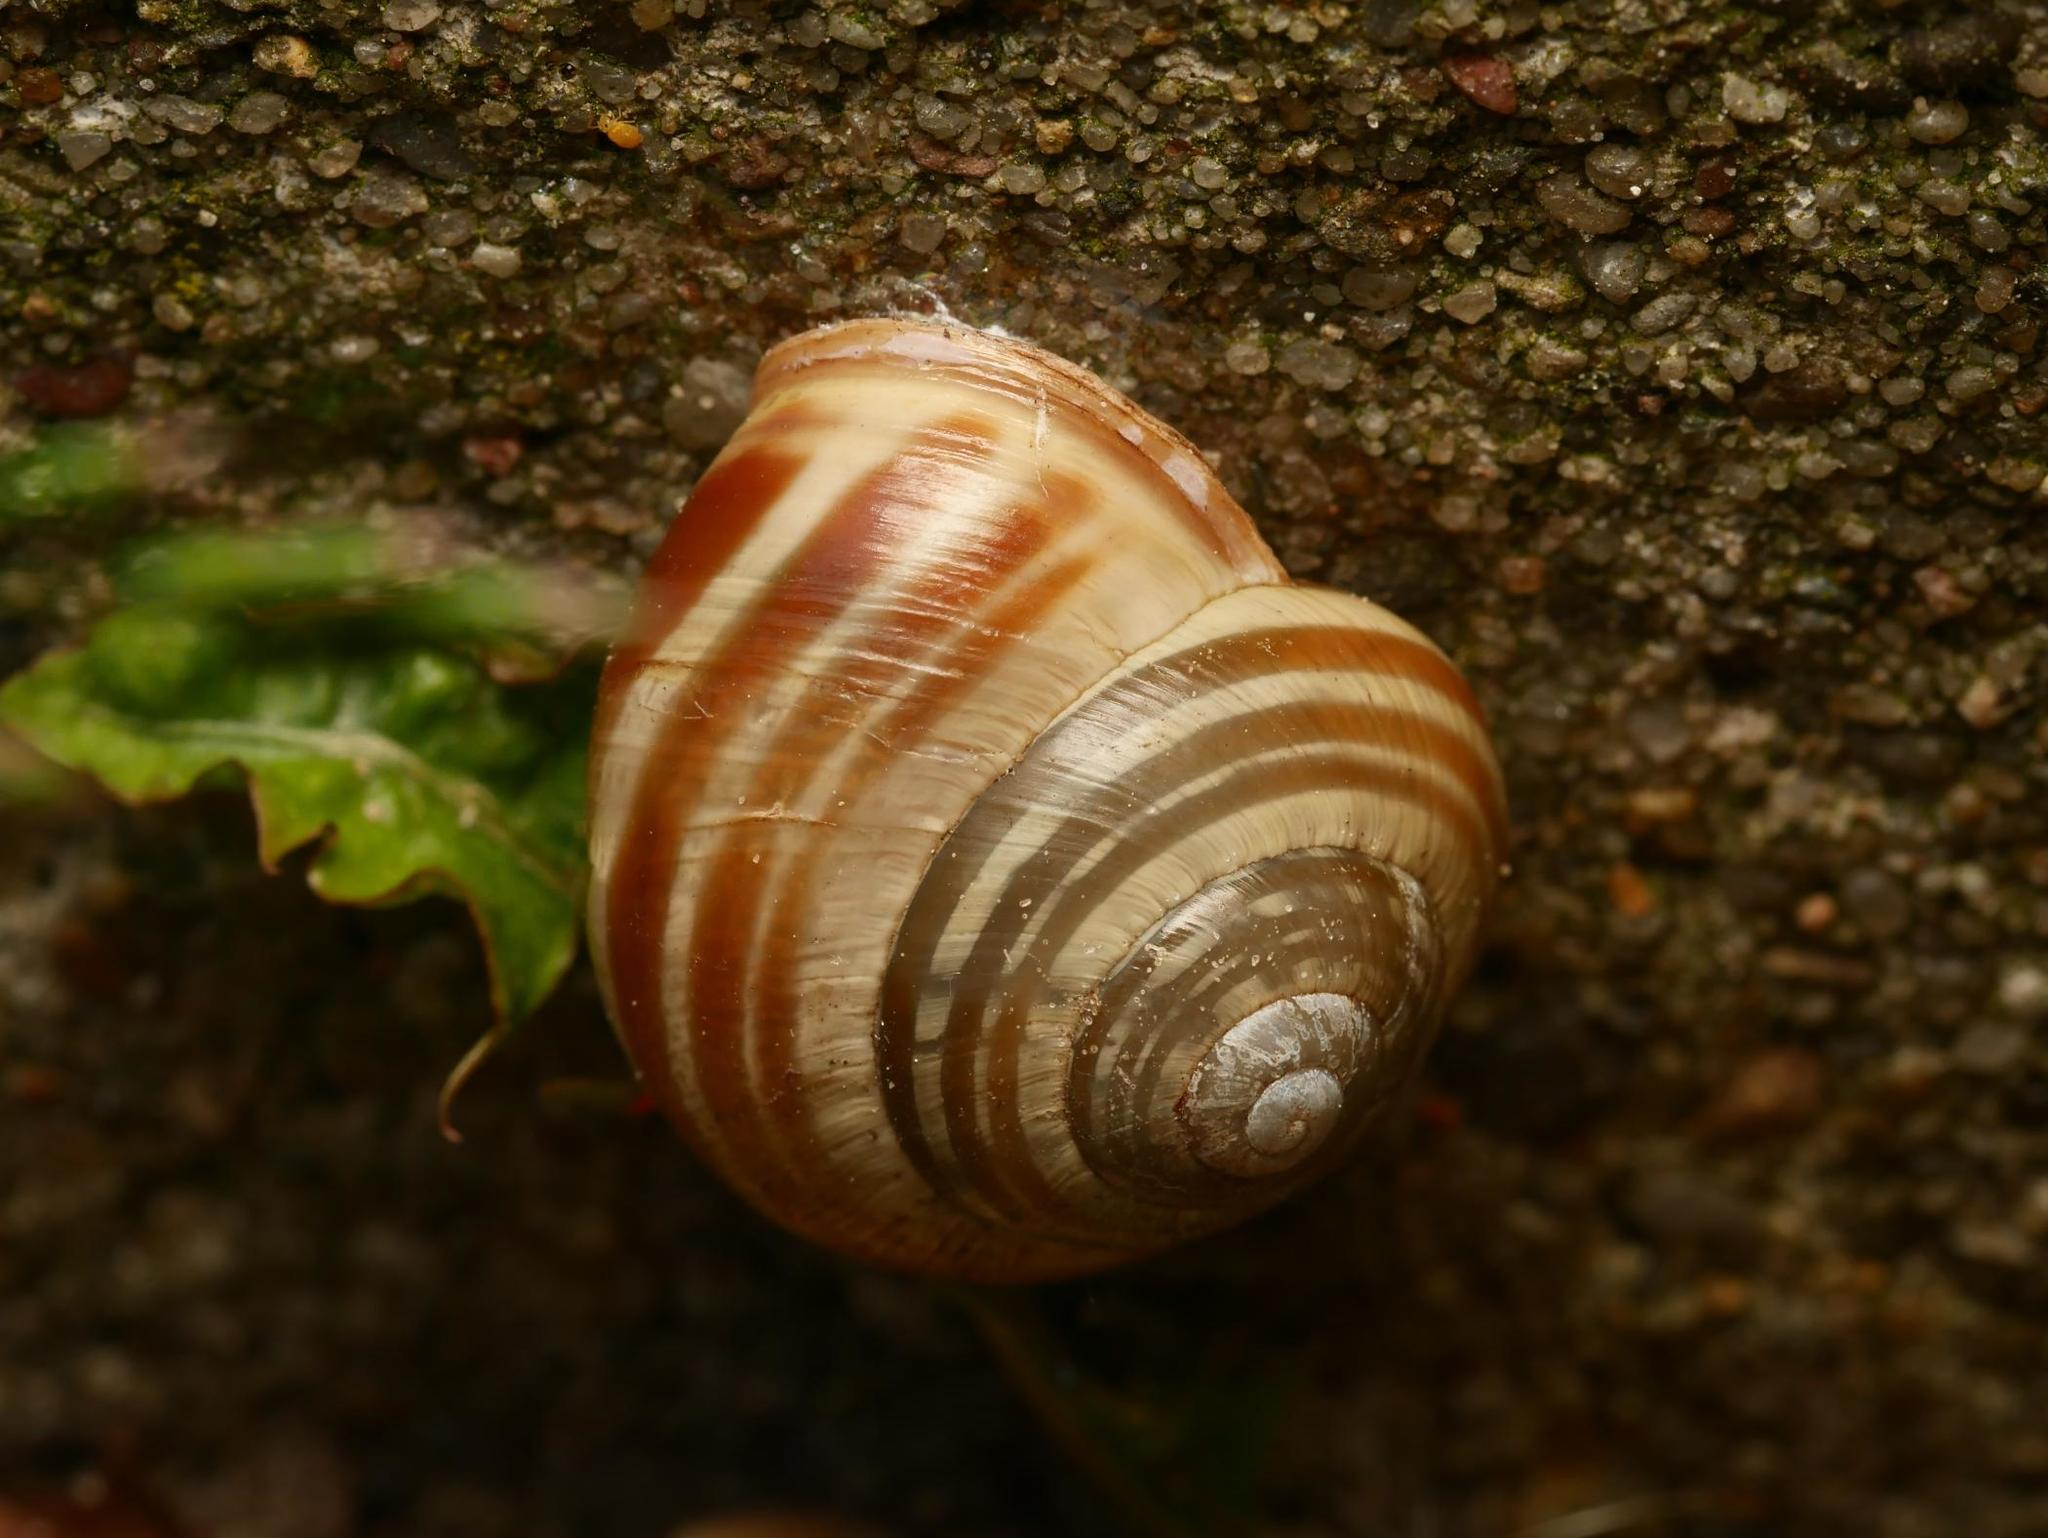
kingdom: Animalia
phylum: Mollusca
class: Gastropoda
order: Stylommatophora
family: Helicidae
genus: Cepaea
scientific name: Cepaea nemoralis
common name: Grovesnail
